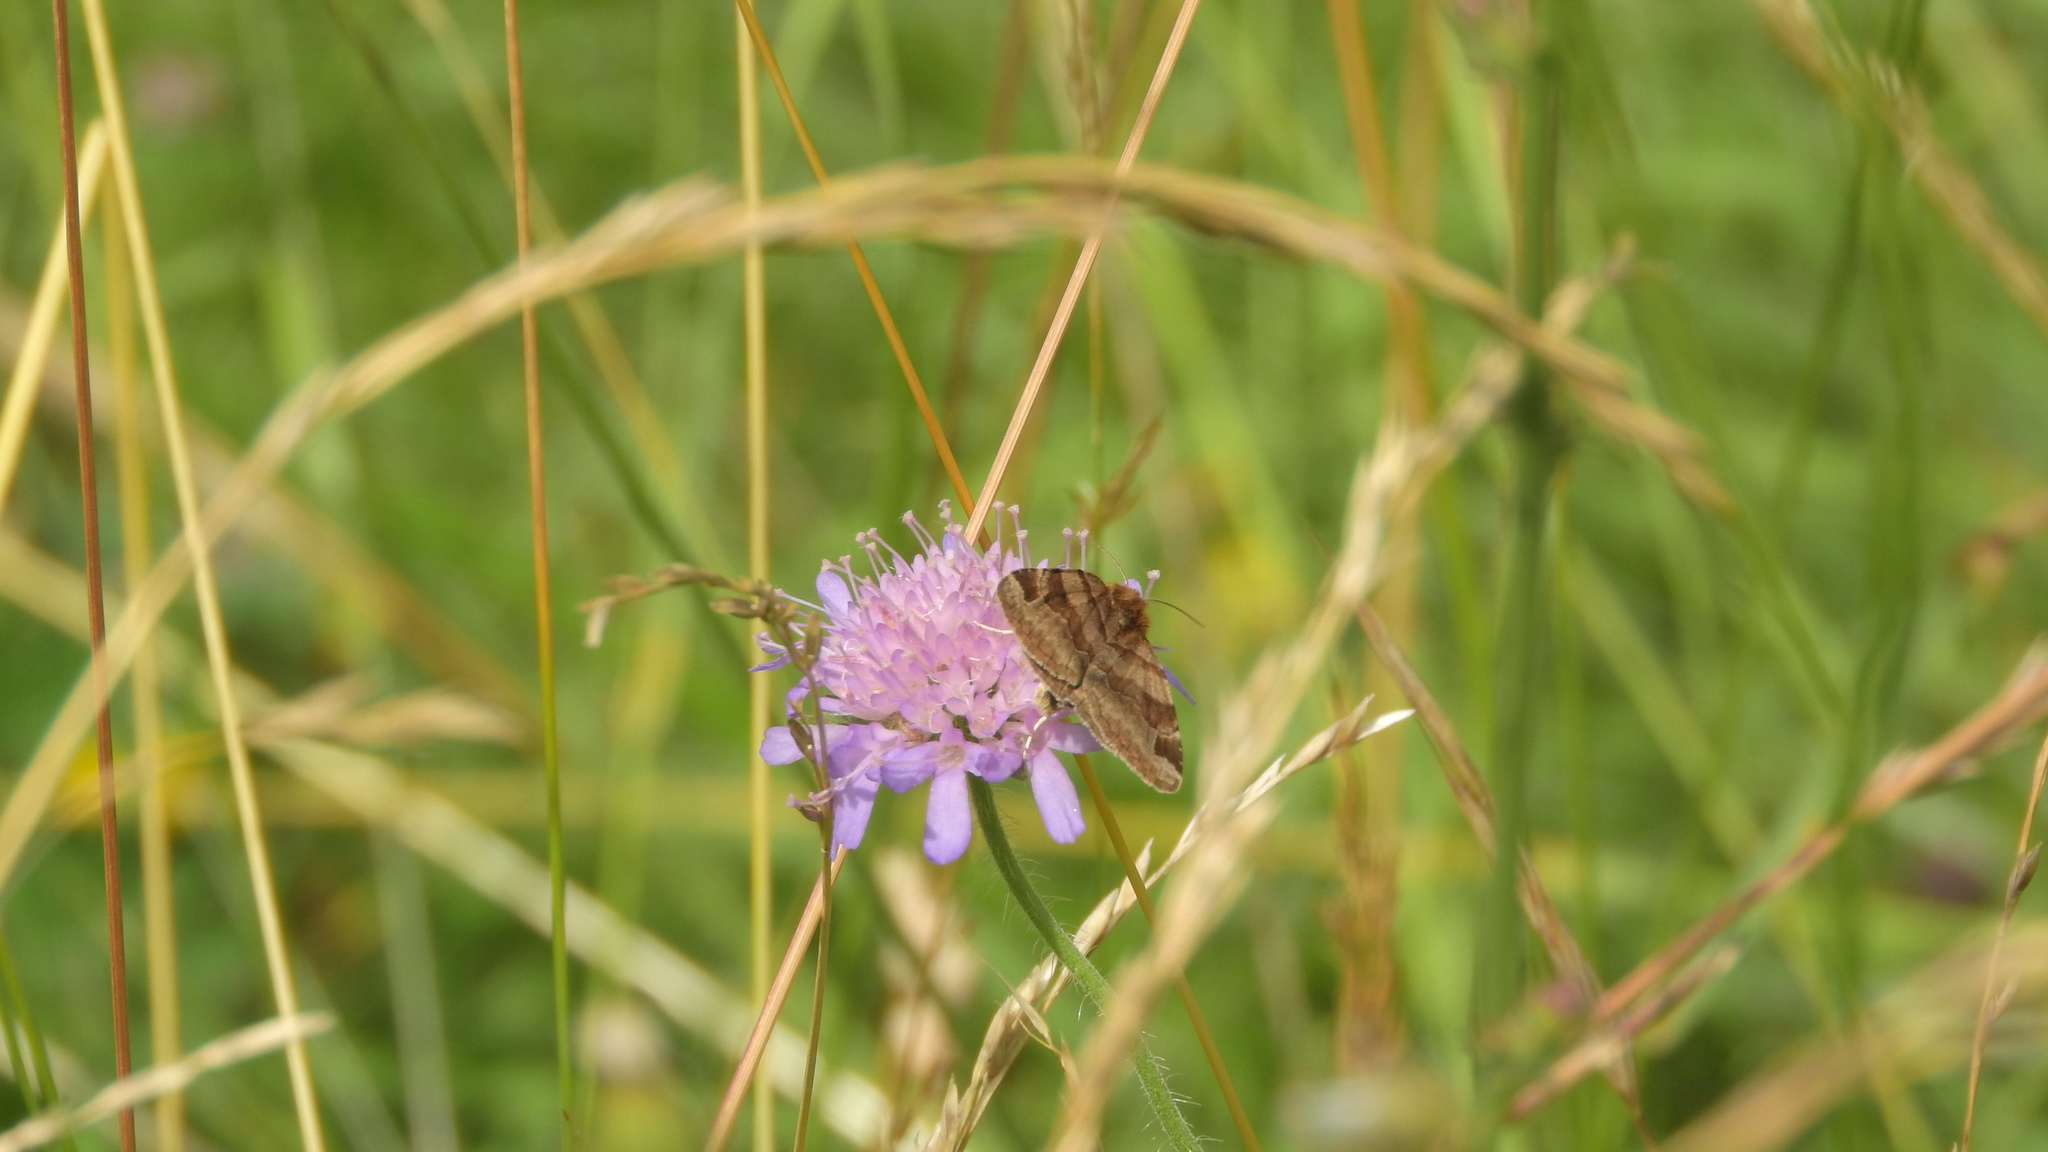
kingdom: Animalia
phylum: Arthropoda
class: Insecta
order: Lepidoptera
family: Erebidae
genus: Euclidia
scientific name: Euclidia glyphica
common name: Burnet companion
